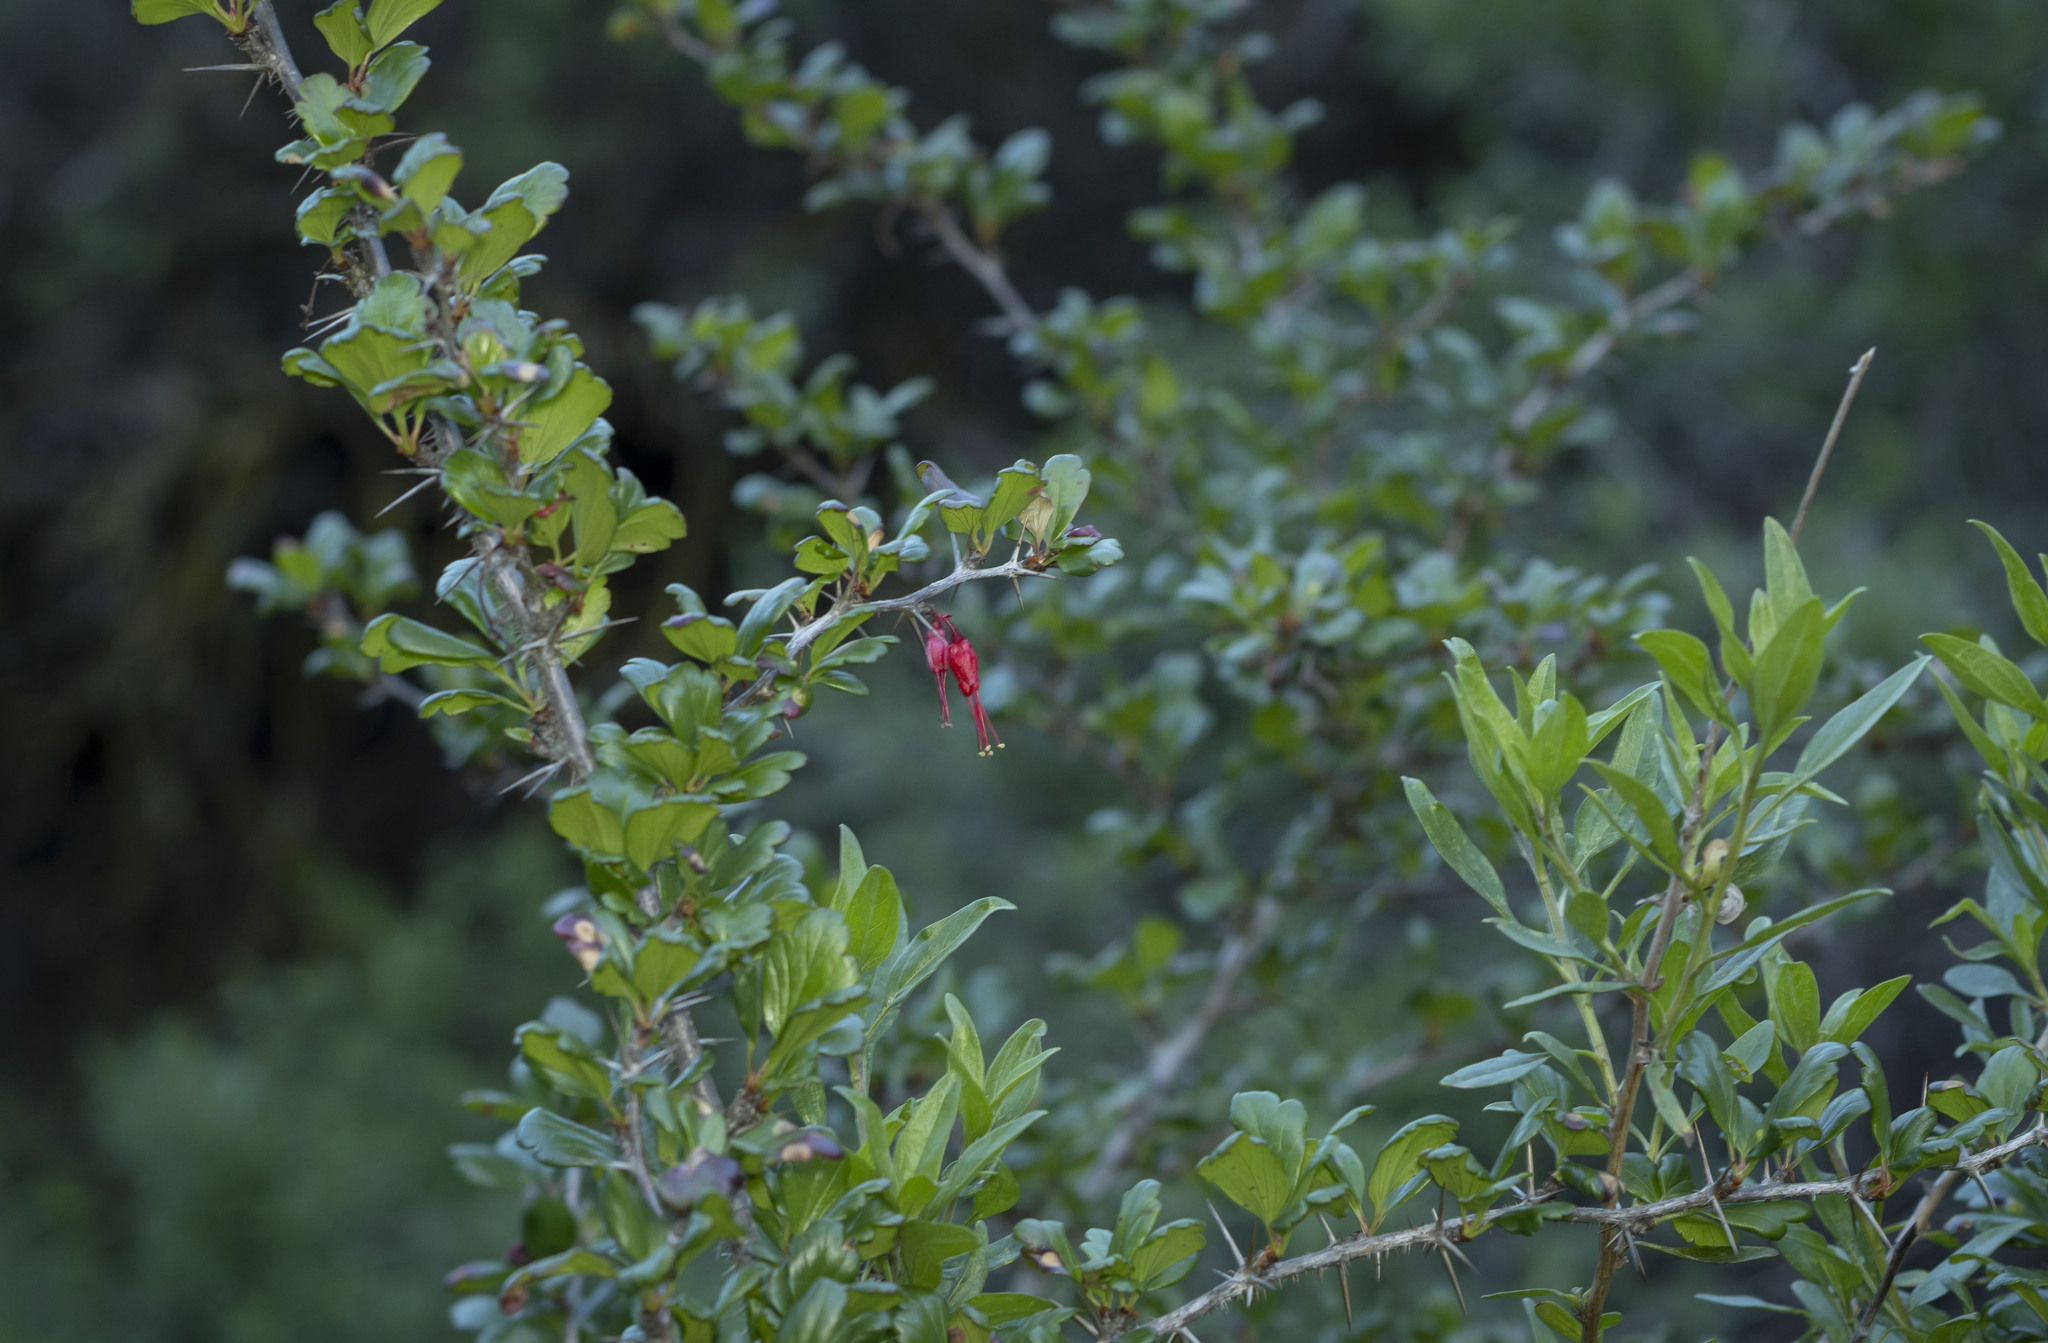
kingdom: Plantae
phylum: Tracheophyta
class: Magnoliopsida
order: Saxifragales
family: Grossulariaceae
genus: Ribes
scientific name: Ribes speciosum
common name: Fuchsia-flower gooseberry
